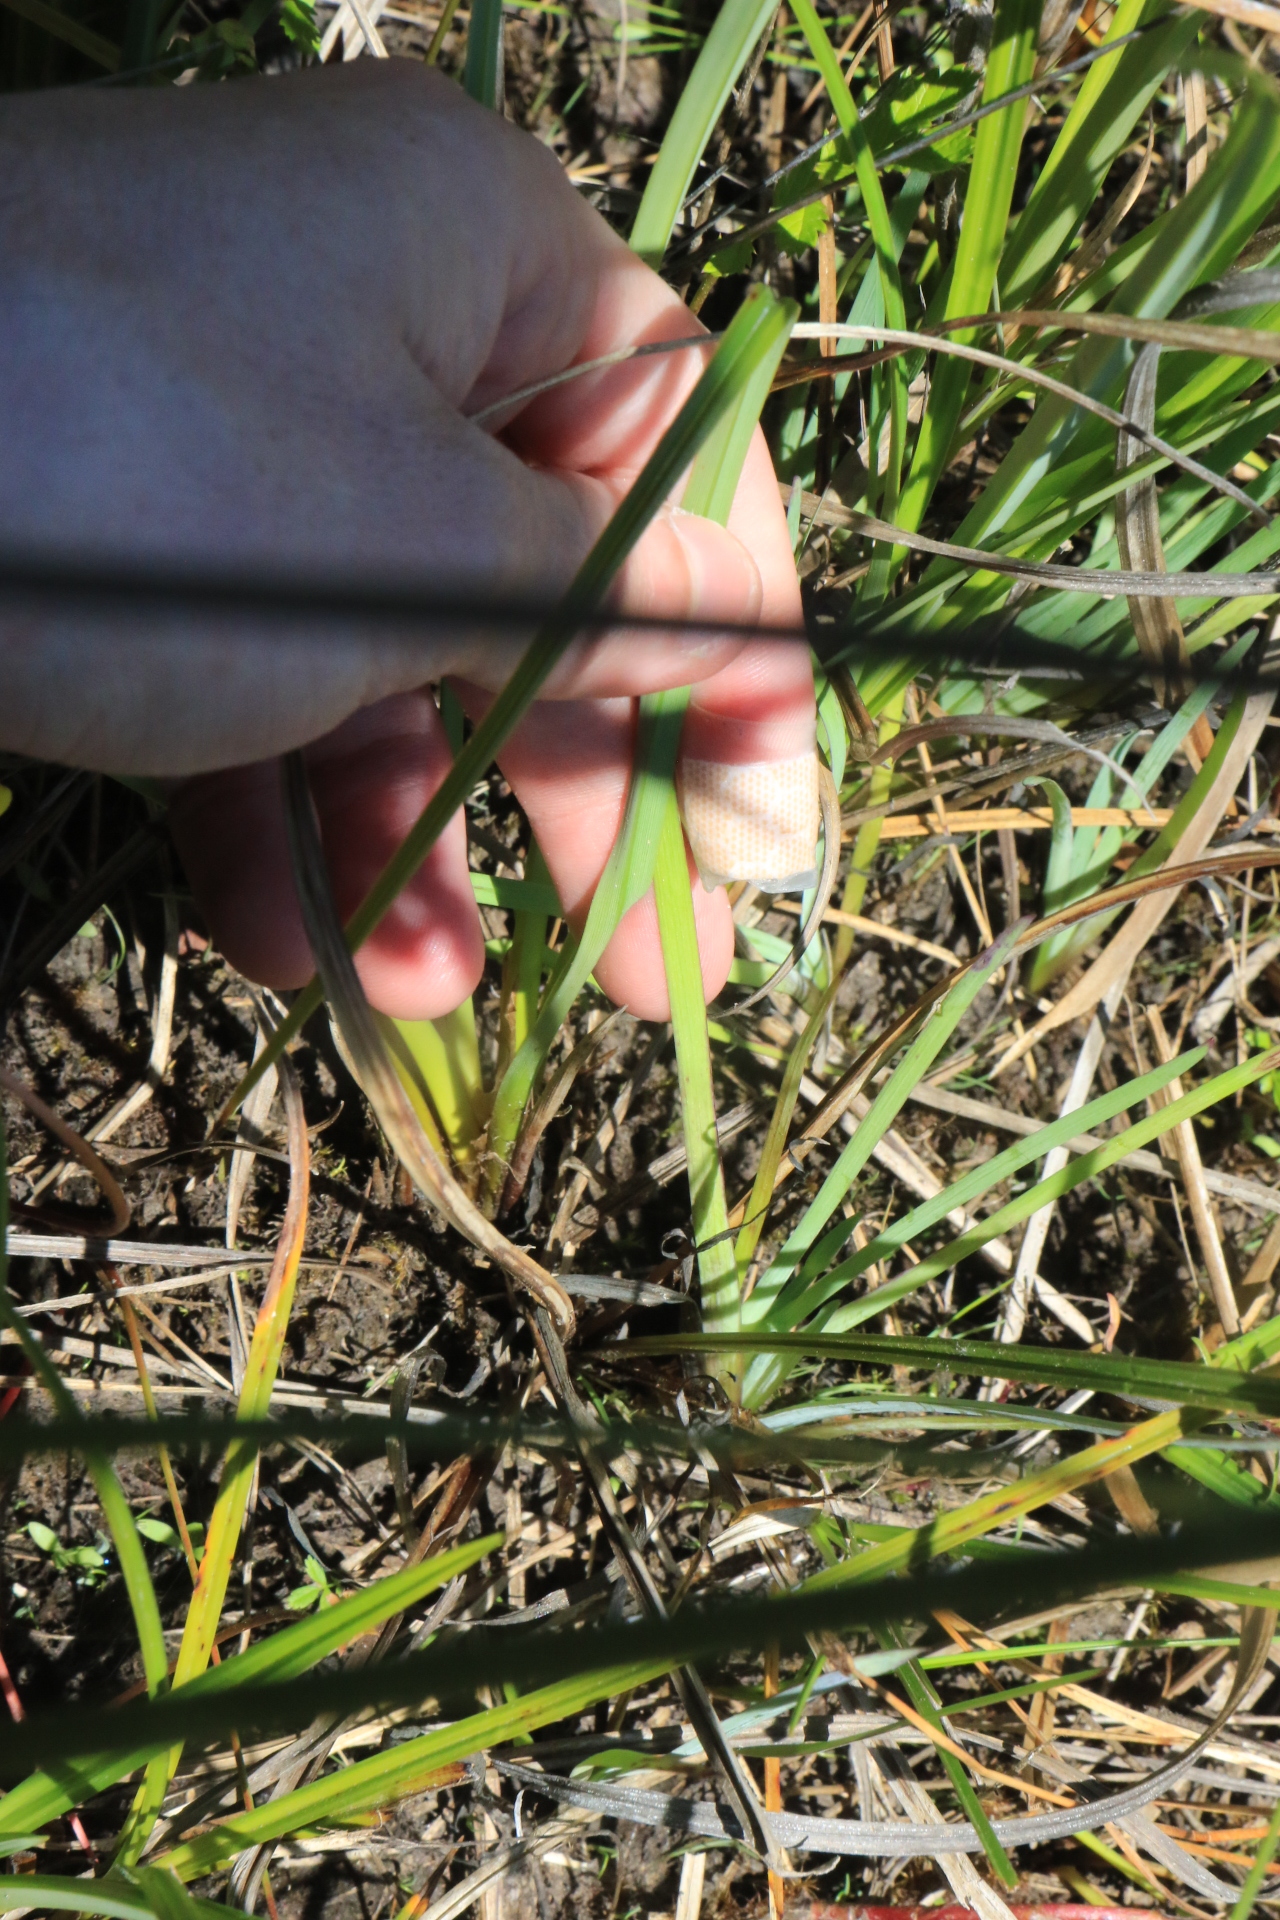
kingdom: Plantae
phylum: Tracheophyta
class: Liliopsida
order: Asparagales
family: Iridaceae
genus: Sisyrinchium
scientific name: Sisyrinchium californicum
